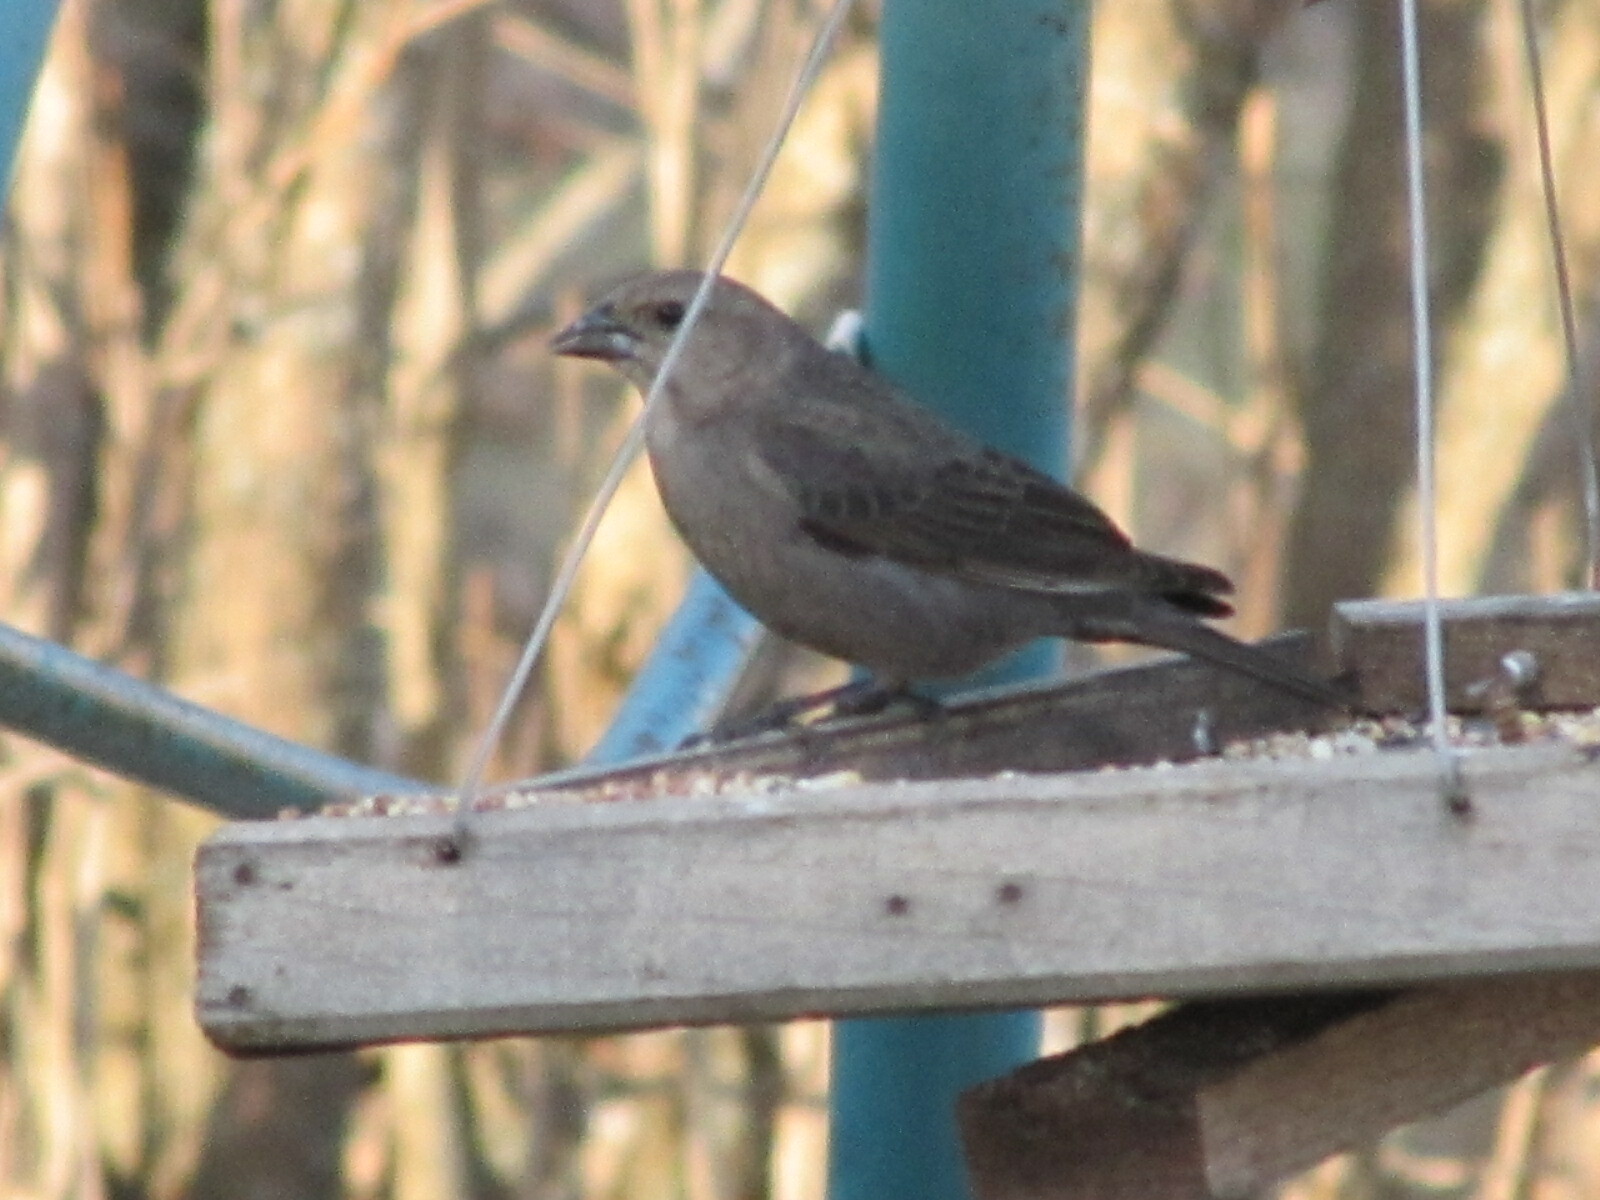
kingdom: Animalia
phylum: Chordata
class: Aves
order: Passeriformes
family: Icteridae
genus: Molothrus
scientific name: Molothrus ater
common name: Brown-headed cowbird
